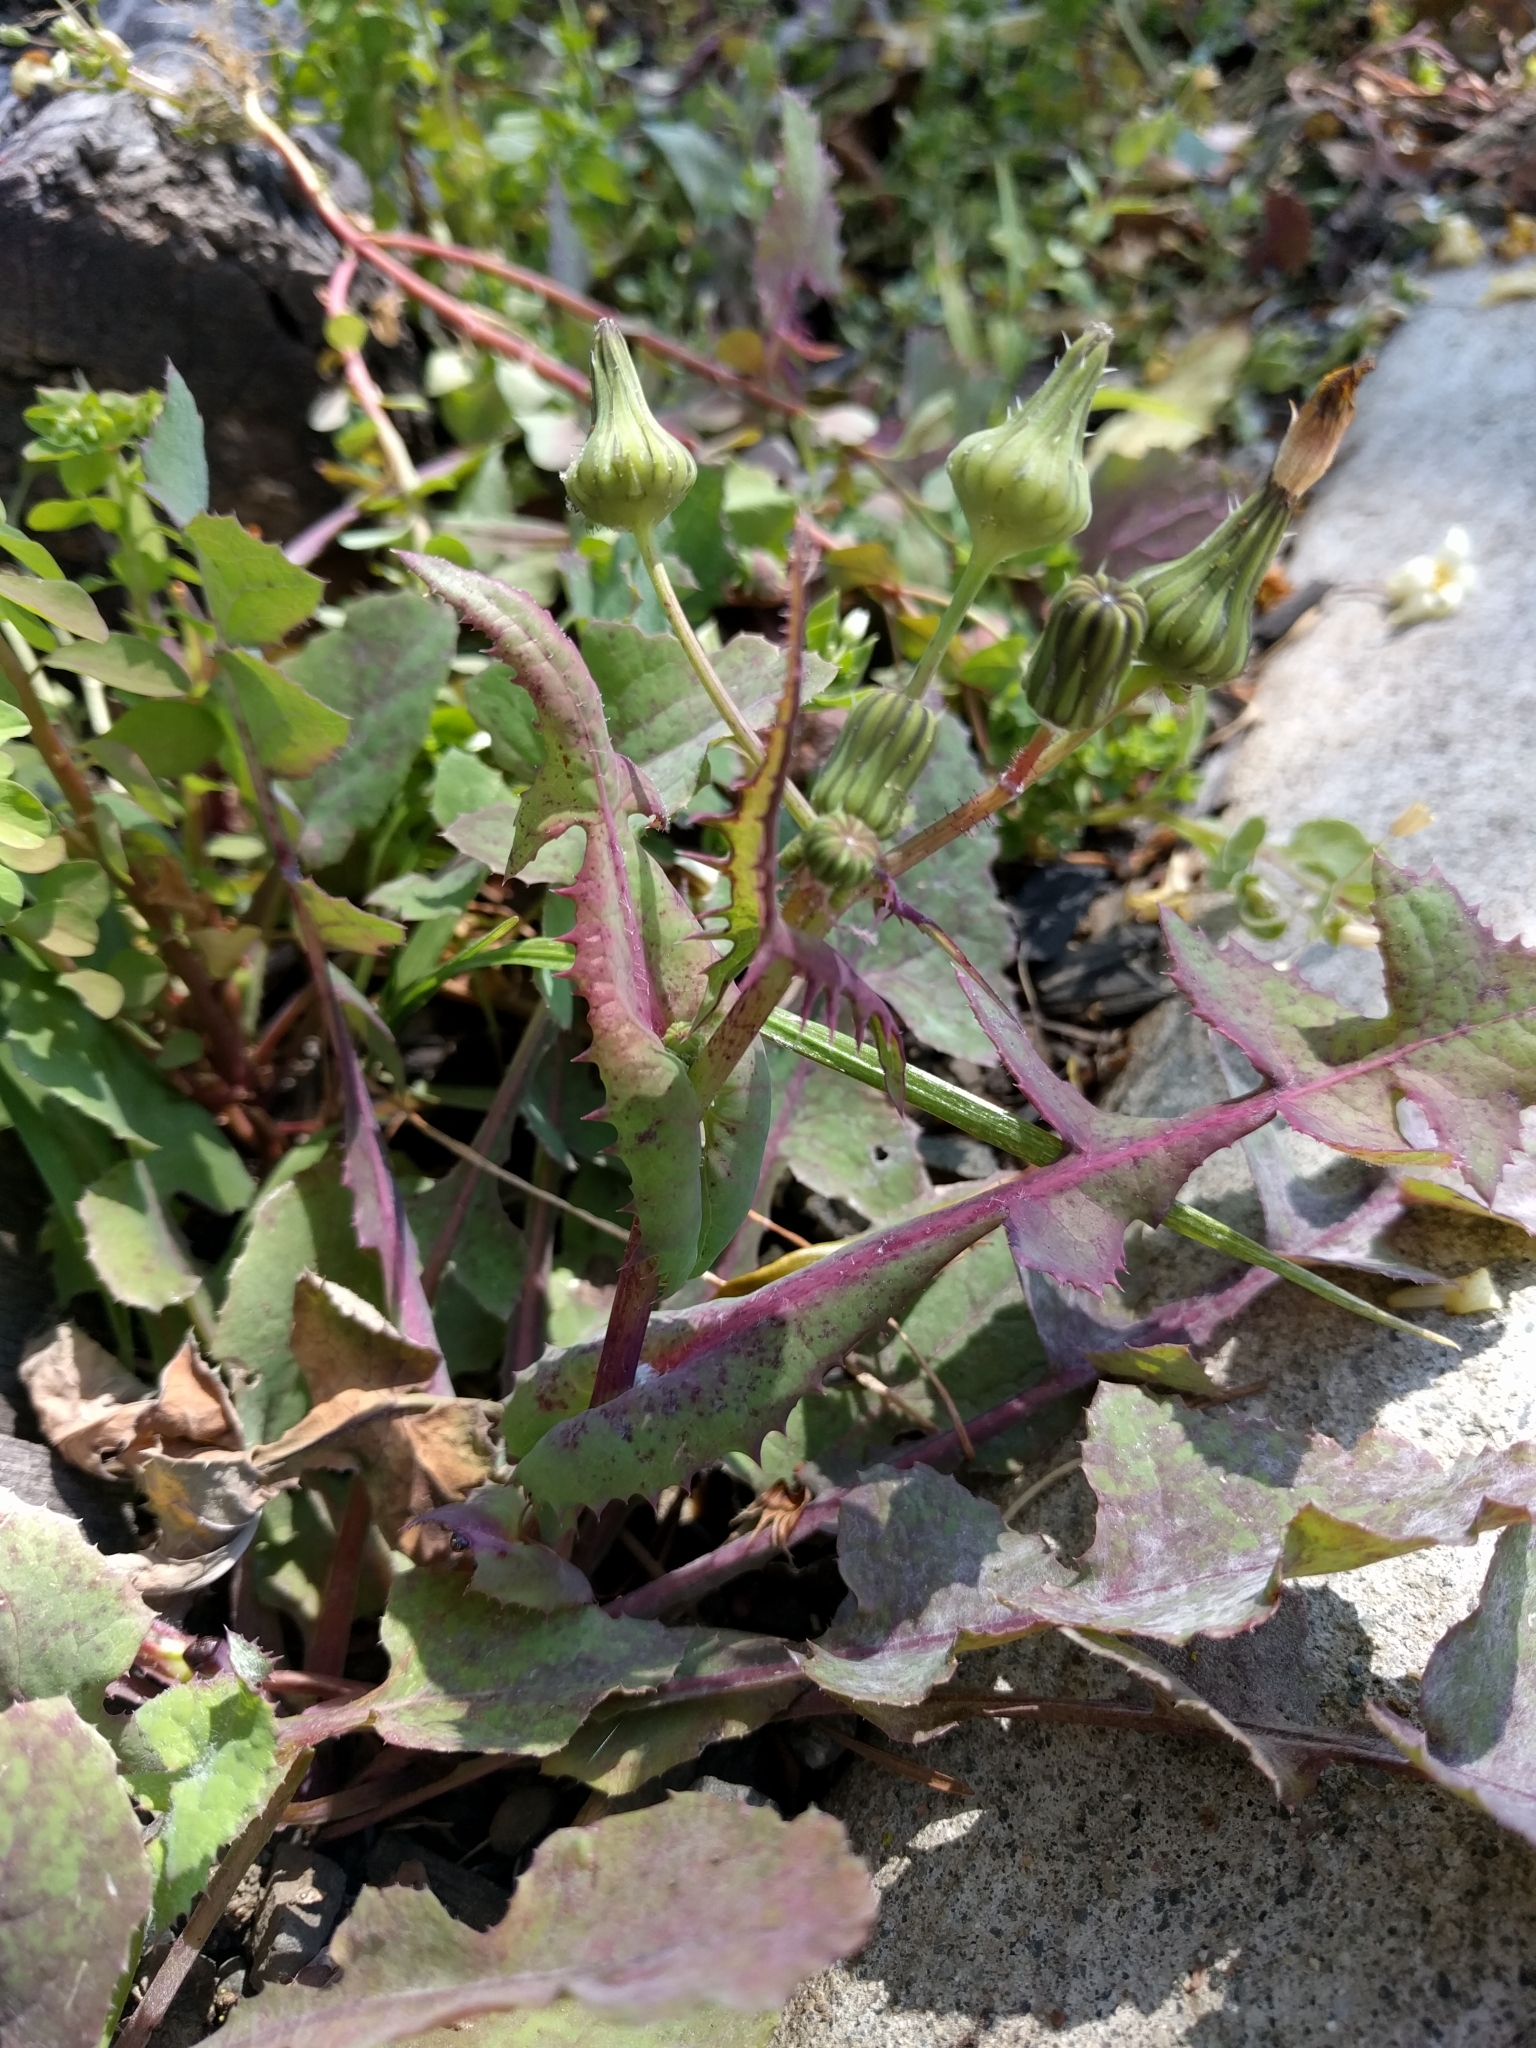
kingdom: Plantae
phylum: Tracheophyta
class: Magnoliopsida
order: Asterales
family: Asteraceae
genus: Sonchus
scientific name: Sonchus oleraceus
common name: Common sowthistle
